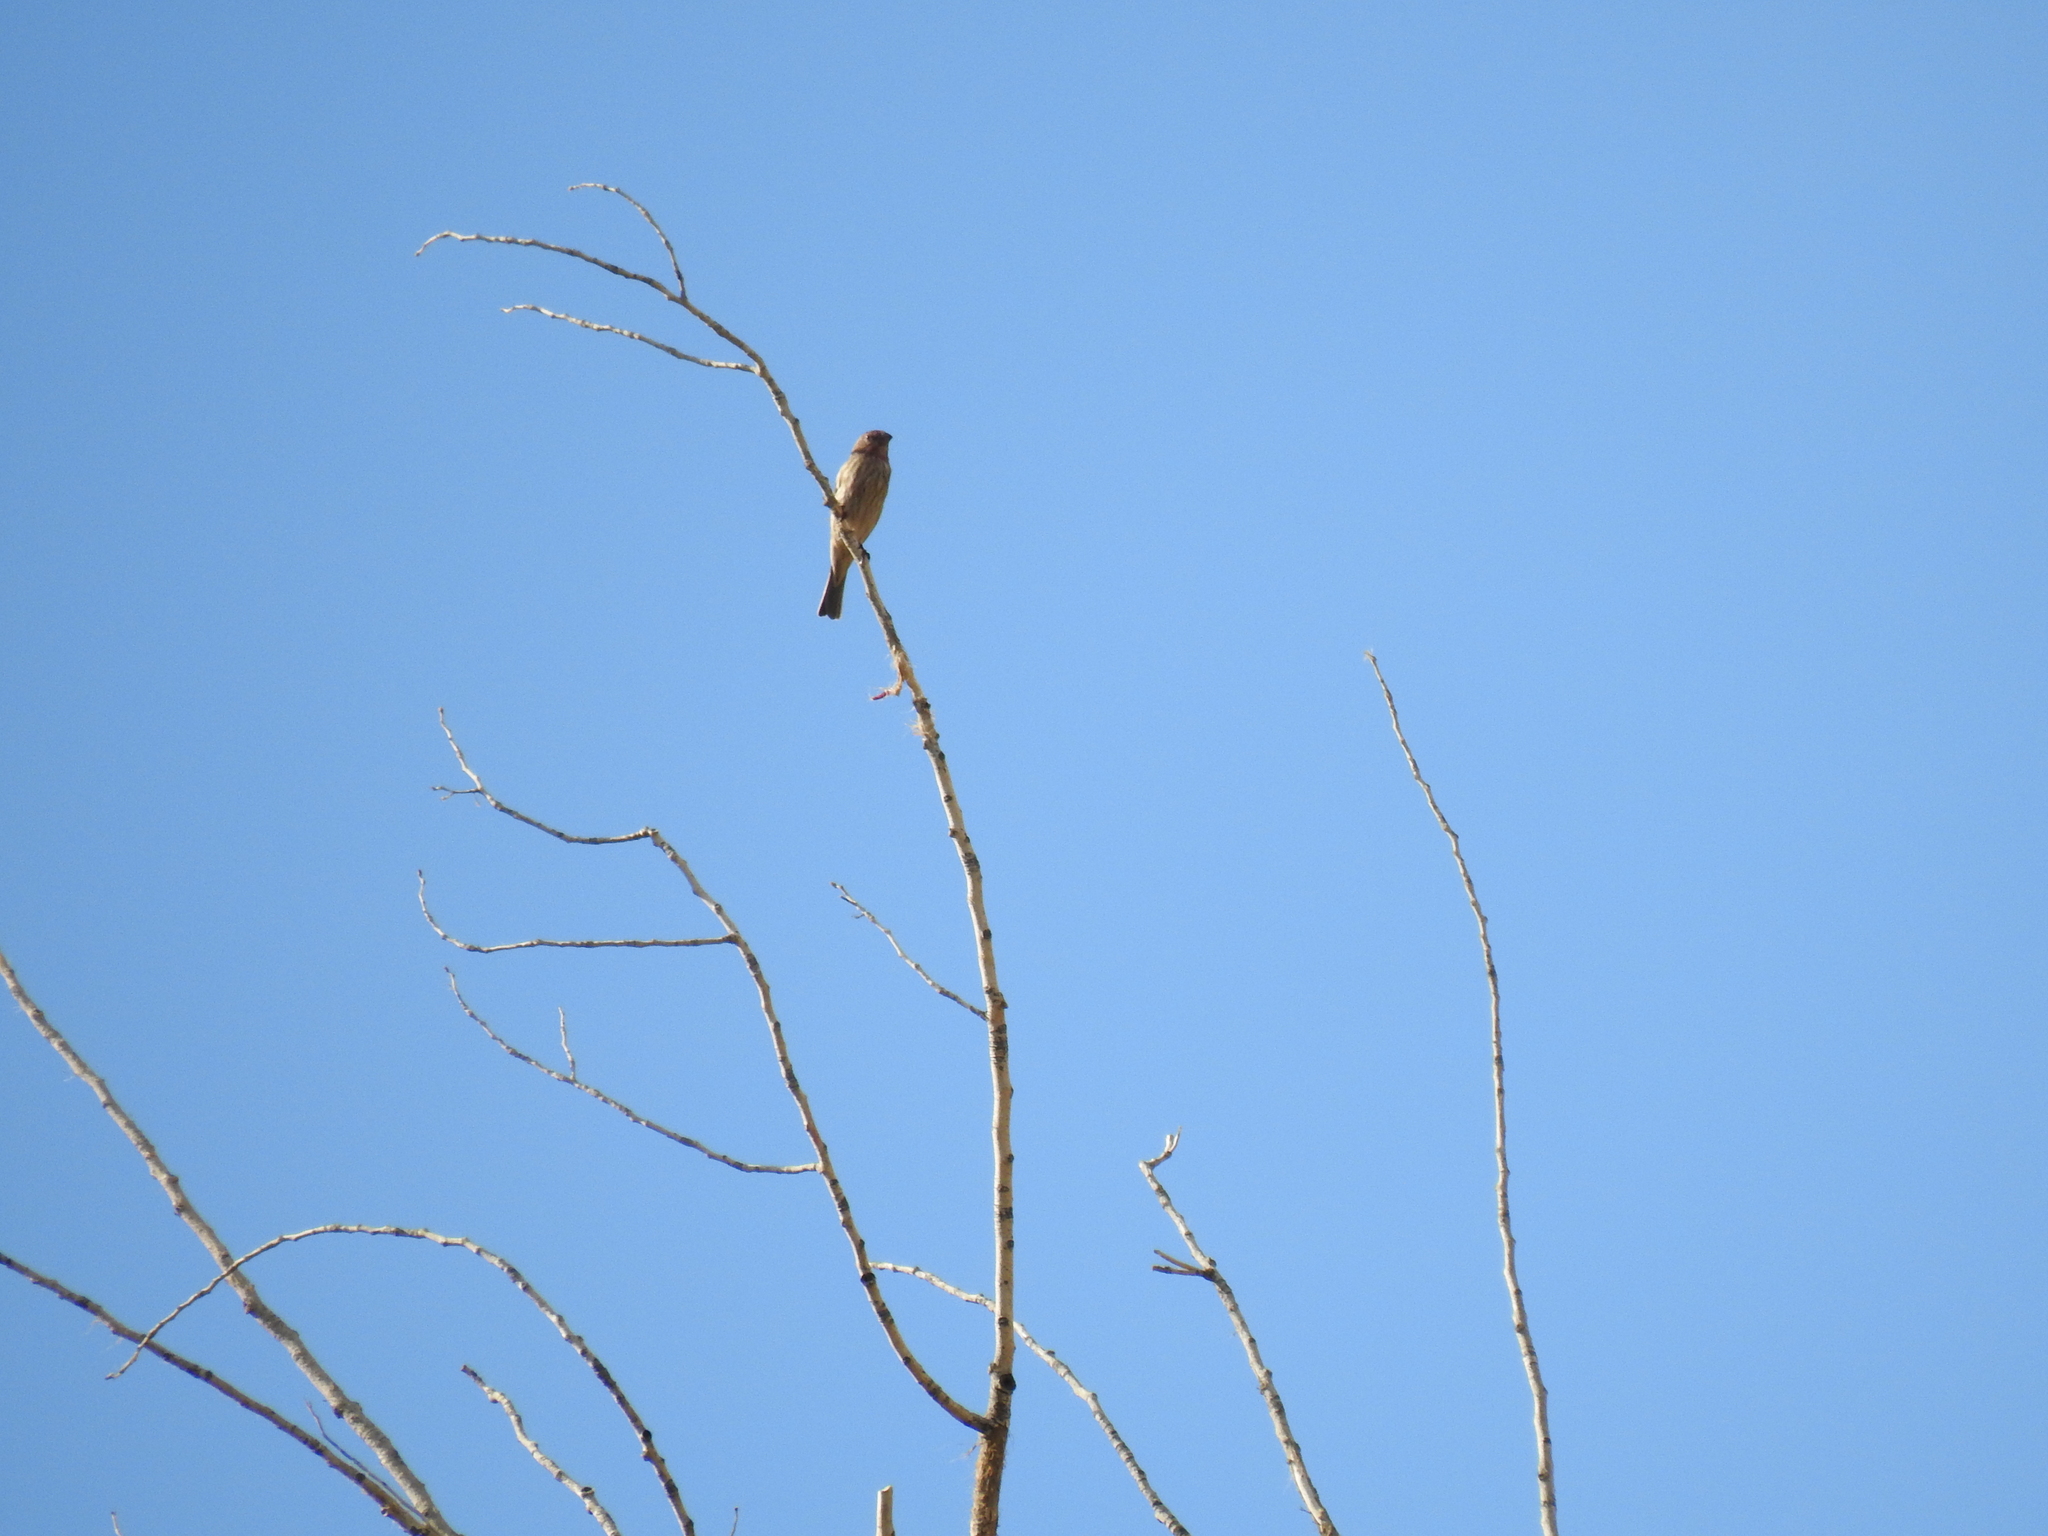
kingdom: Animalia
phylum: Chordata
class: Aves
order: Passeriformes
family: Fringillidae
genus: Haemorhous
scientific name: Haemorhous mexicanus
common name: House finch
